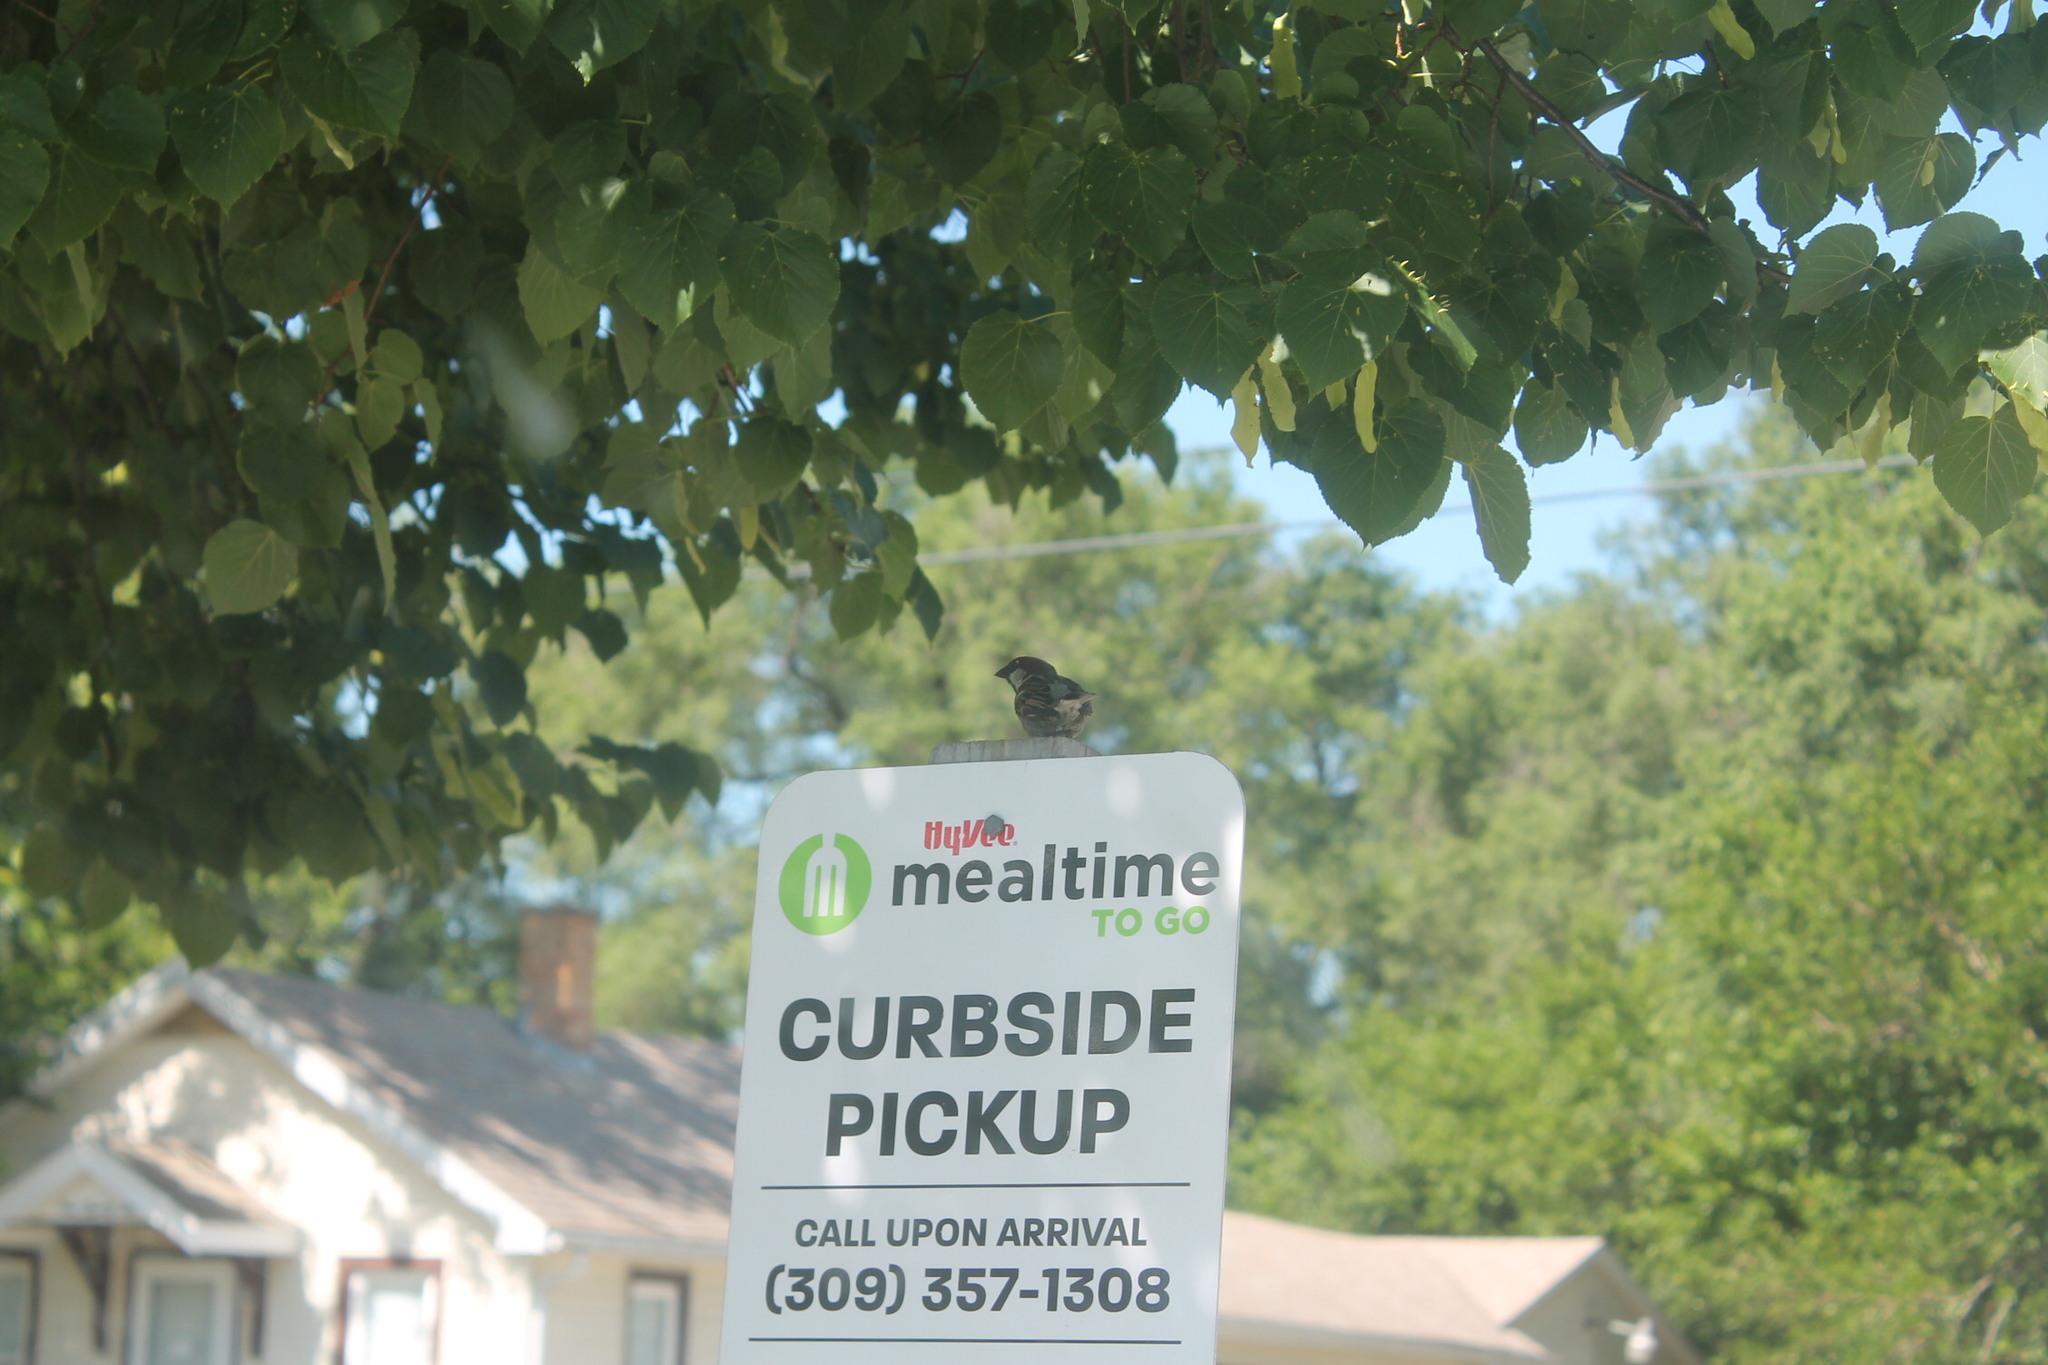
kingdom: Animalia
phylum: Chordata
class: Aves
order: Passeriformes
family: Passeridae
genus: Passer
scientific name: Passer domesticus
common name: House sparrow
